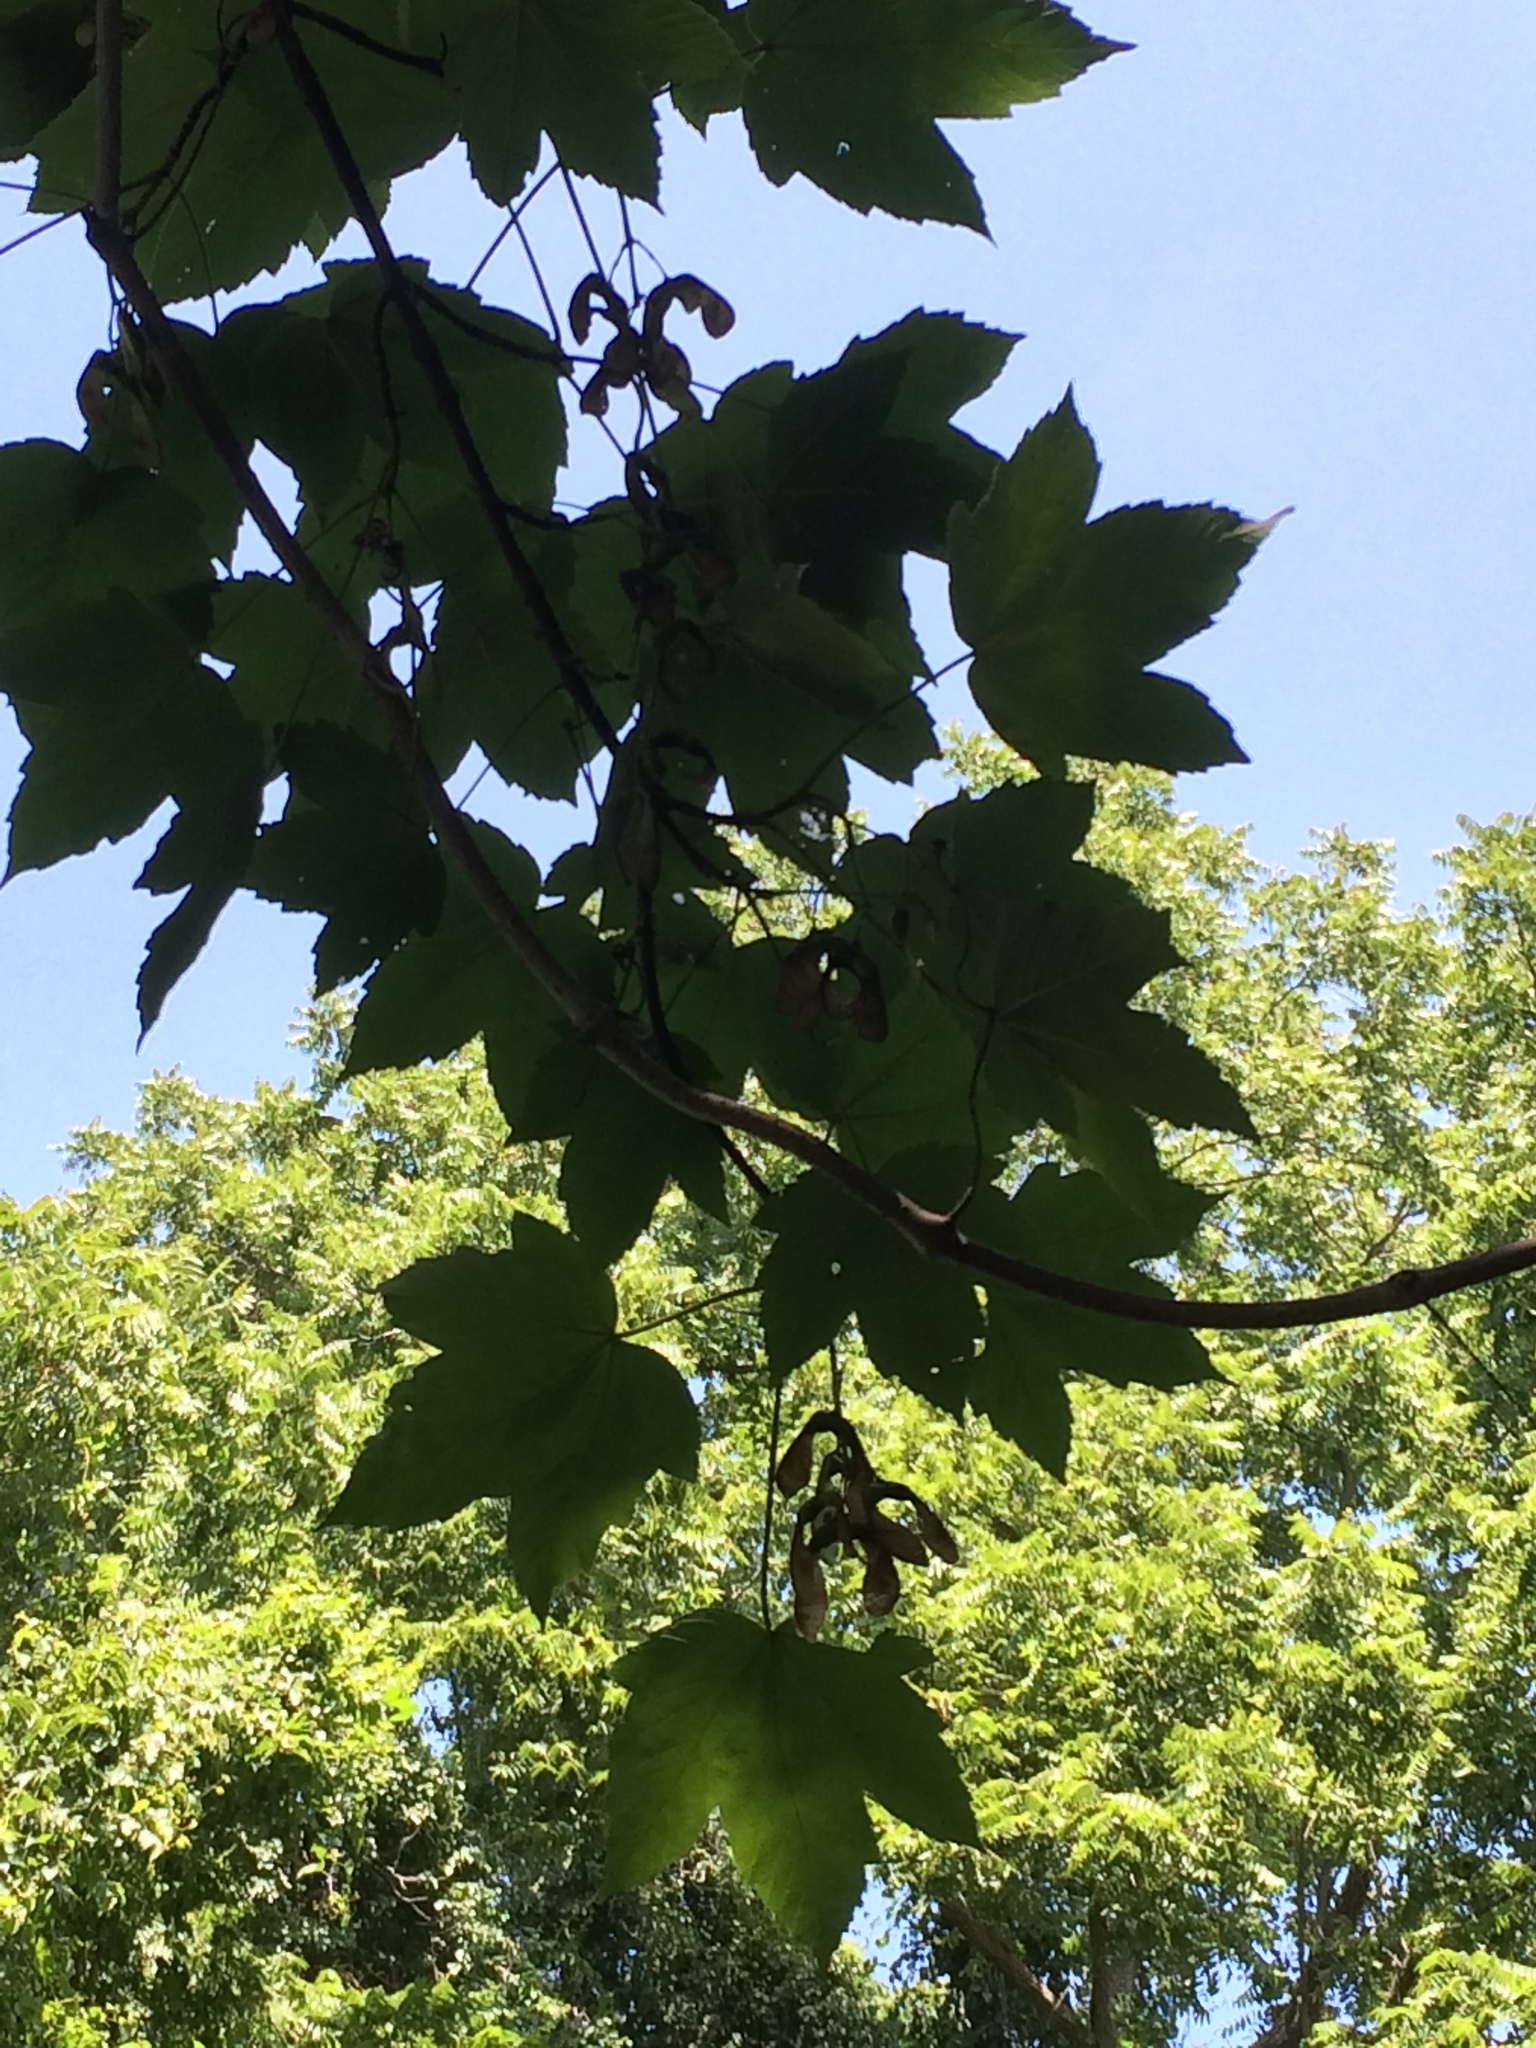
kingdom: Plantae
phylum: Tracheophyta
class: Magnoliopsida
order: Sapindales
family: Sapindaceae
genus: Acer
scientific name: Acer pseudoplatanus
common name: Sycamore
